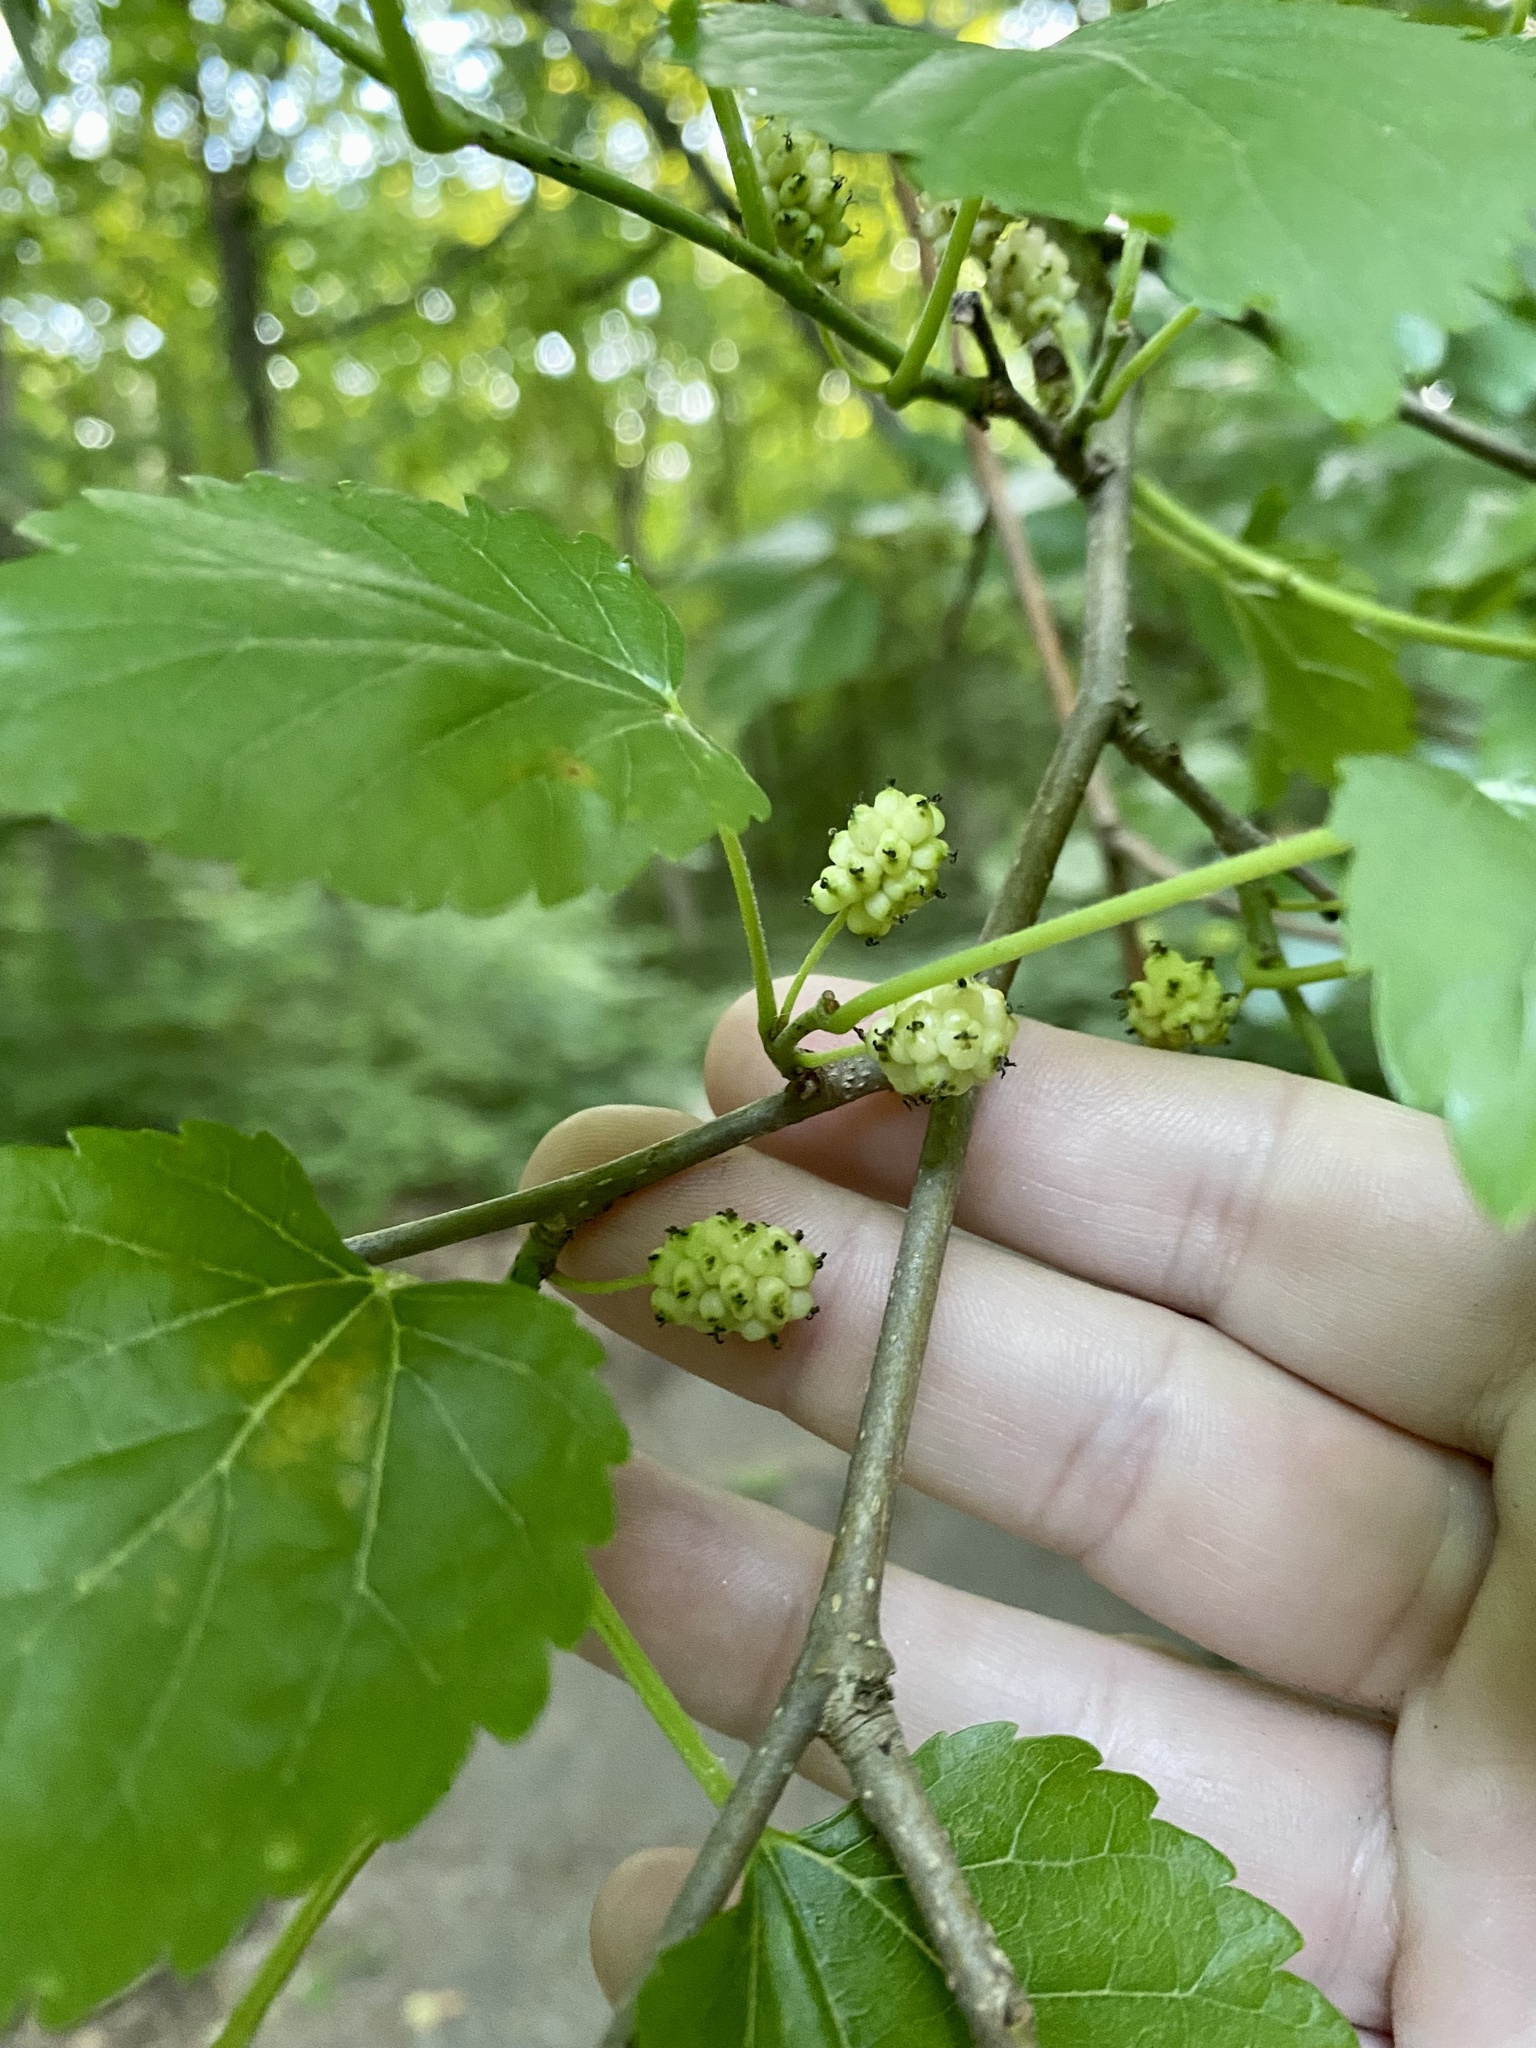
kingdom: Plantae
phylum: Tracheophyta
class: Magnoliopsida
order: Rosales
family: Moraceae
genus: Morus
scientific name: Morus alba
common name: White mulberry
